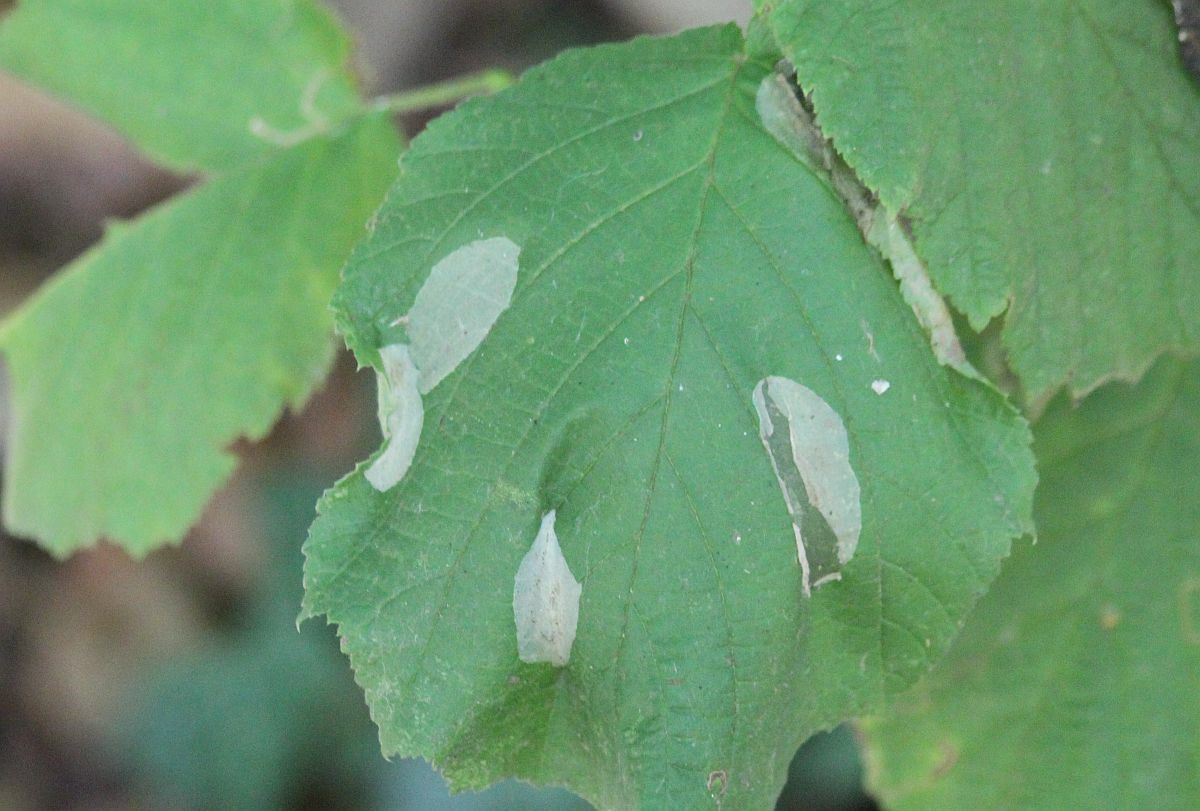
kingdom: Animalia
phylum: Arthropoda
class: Insecta
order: Lepidoptera
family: Gracillariidae
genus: Phyllonorycter
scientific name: Phyllonorycter coryli
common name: Nut-leaf blister moth
